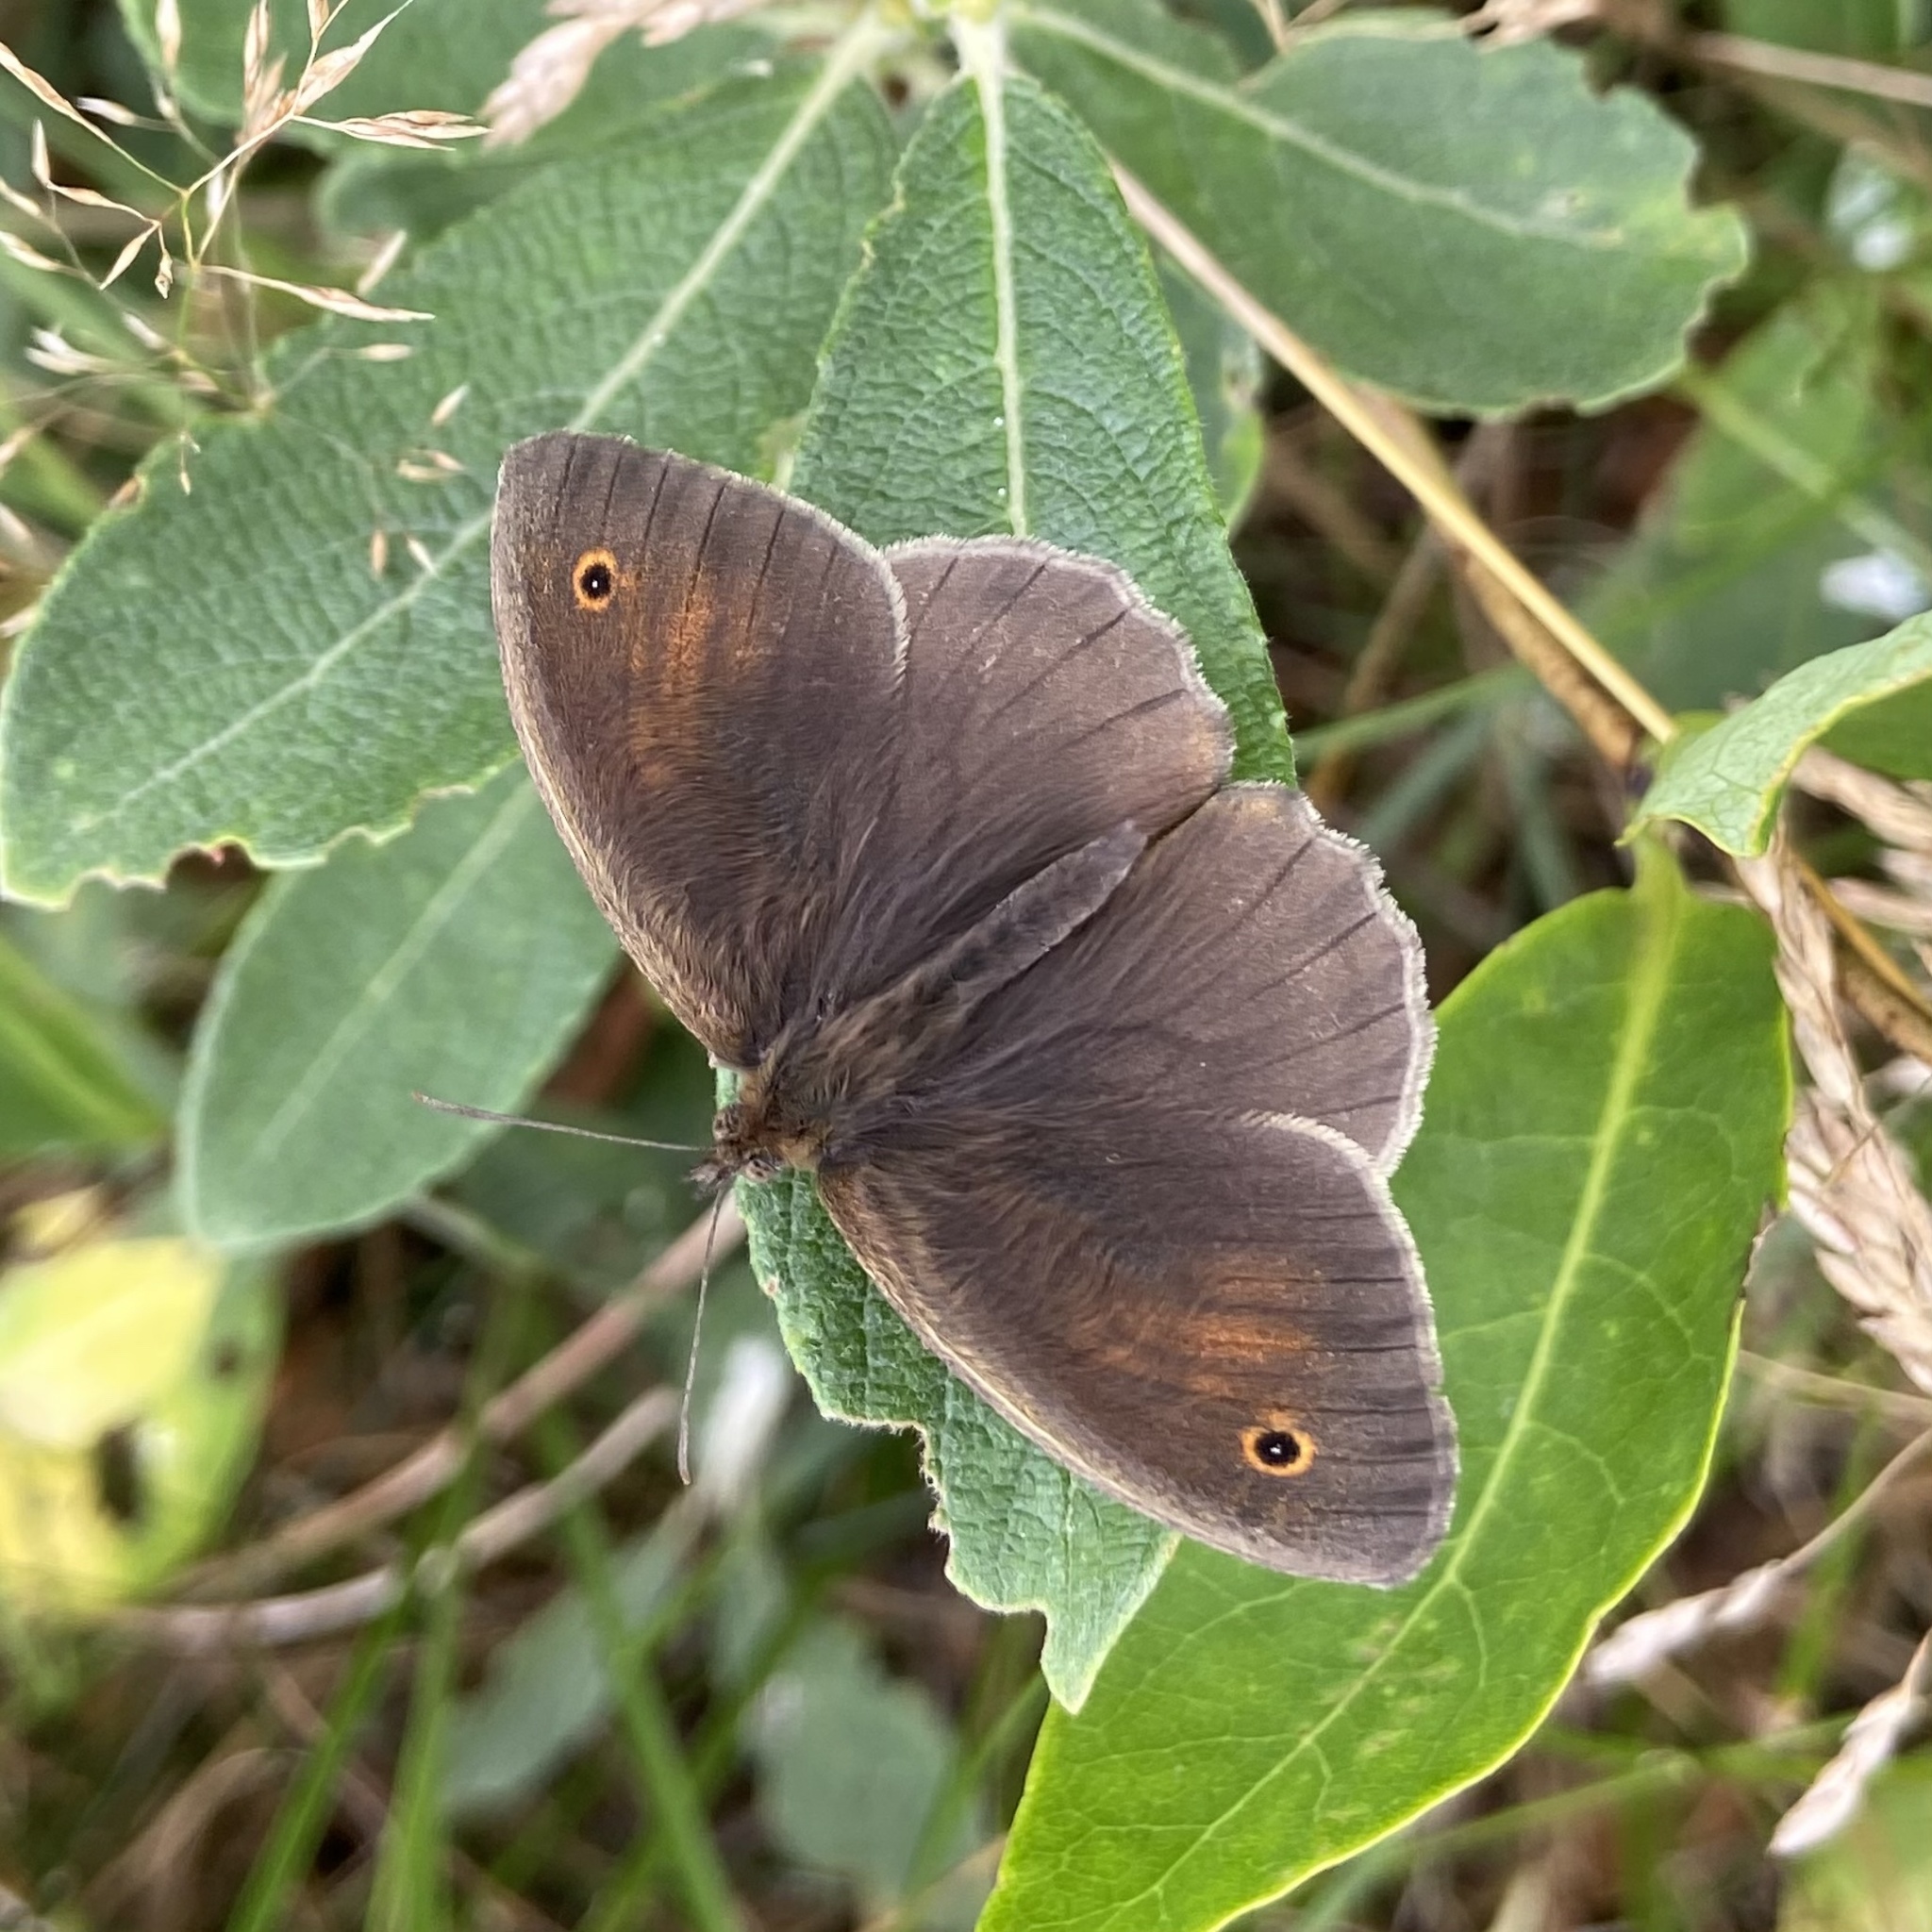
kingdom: Animalia
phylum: Arthropoda
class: Insecta
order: Lepidoptera
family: Nymphalidae
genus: Maniola
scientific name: Maniola jurtina
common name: Meadow brown
